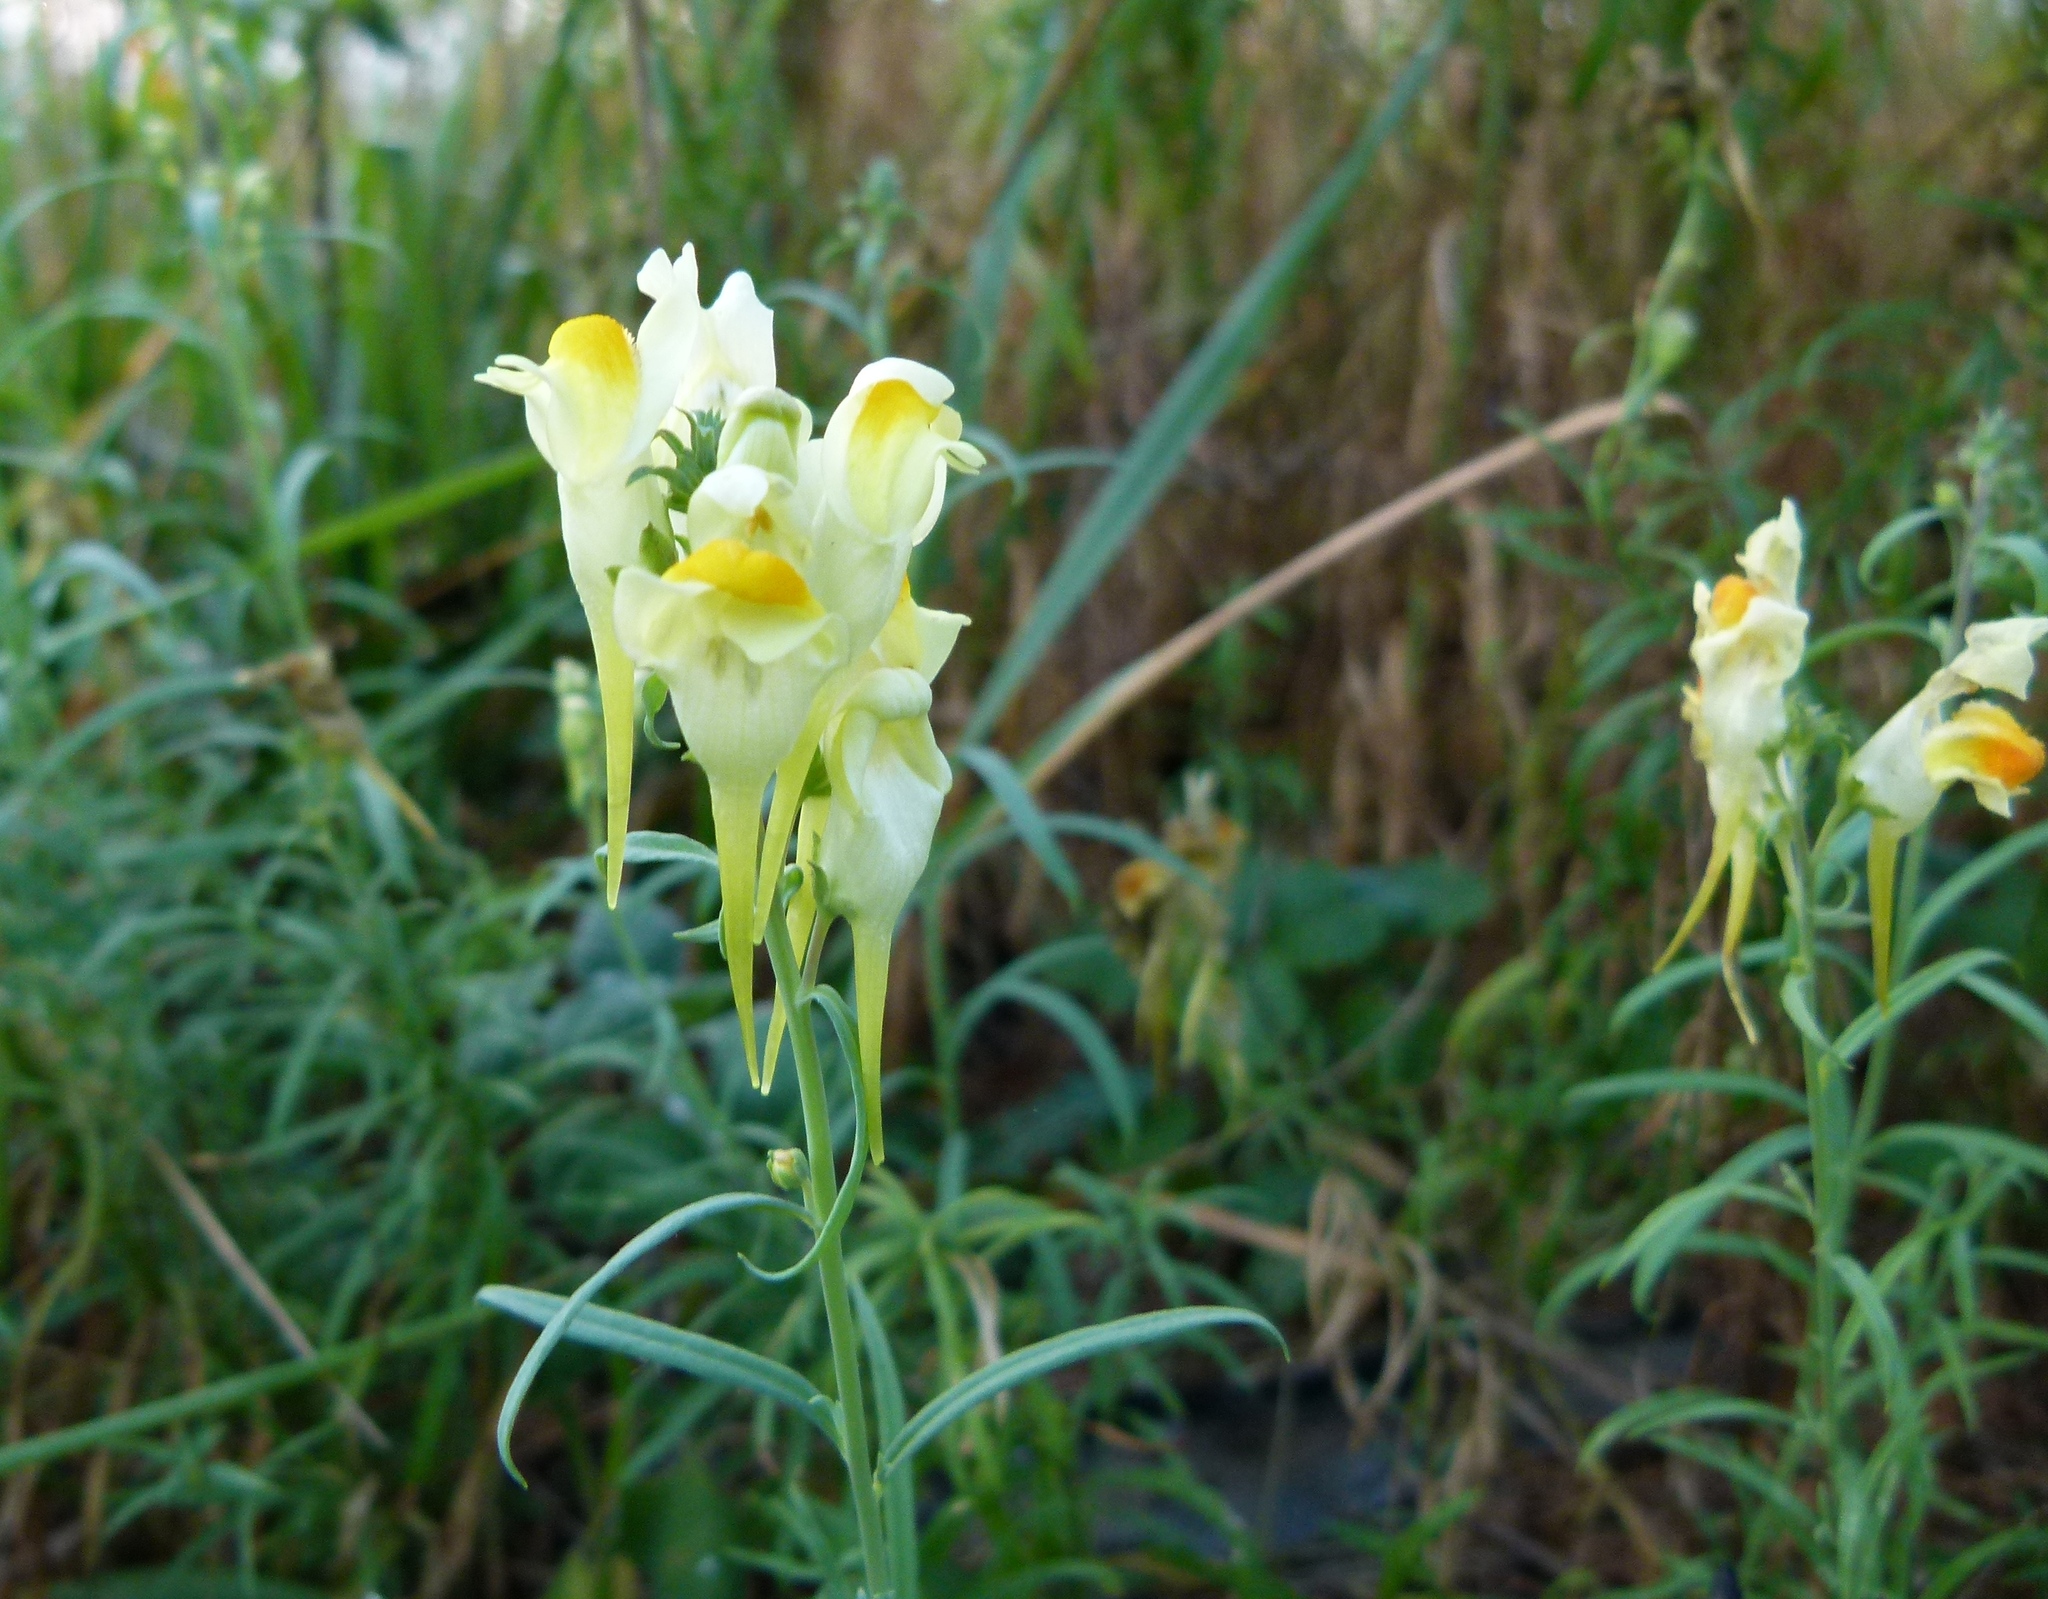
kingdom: Plantae
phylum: Tracheophyta
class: Magnoliopsida
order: Lamiales
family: Plantaginaceae
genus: Linaria
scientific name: Linaria vulgaris
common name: Butter and eggs
